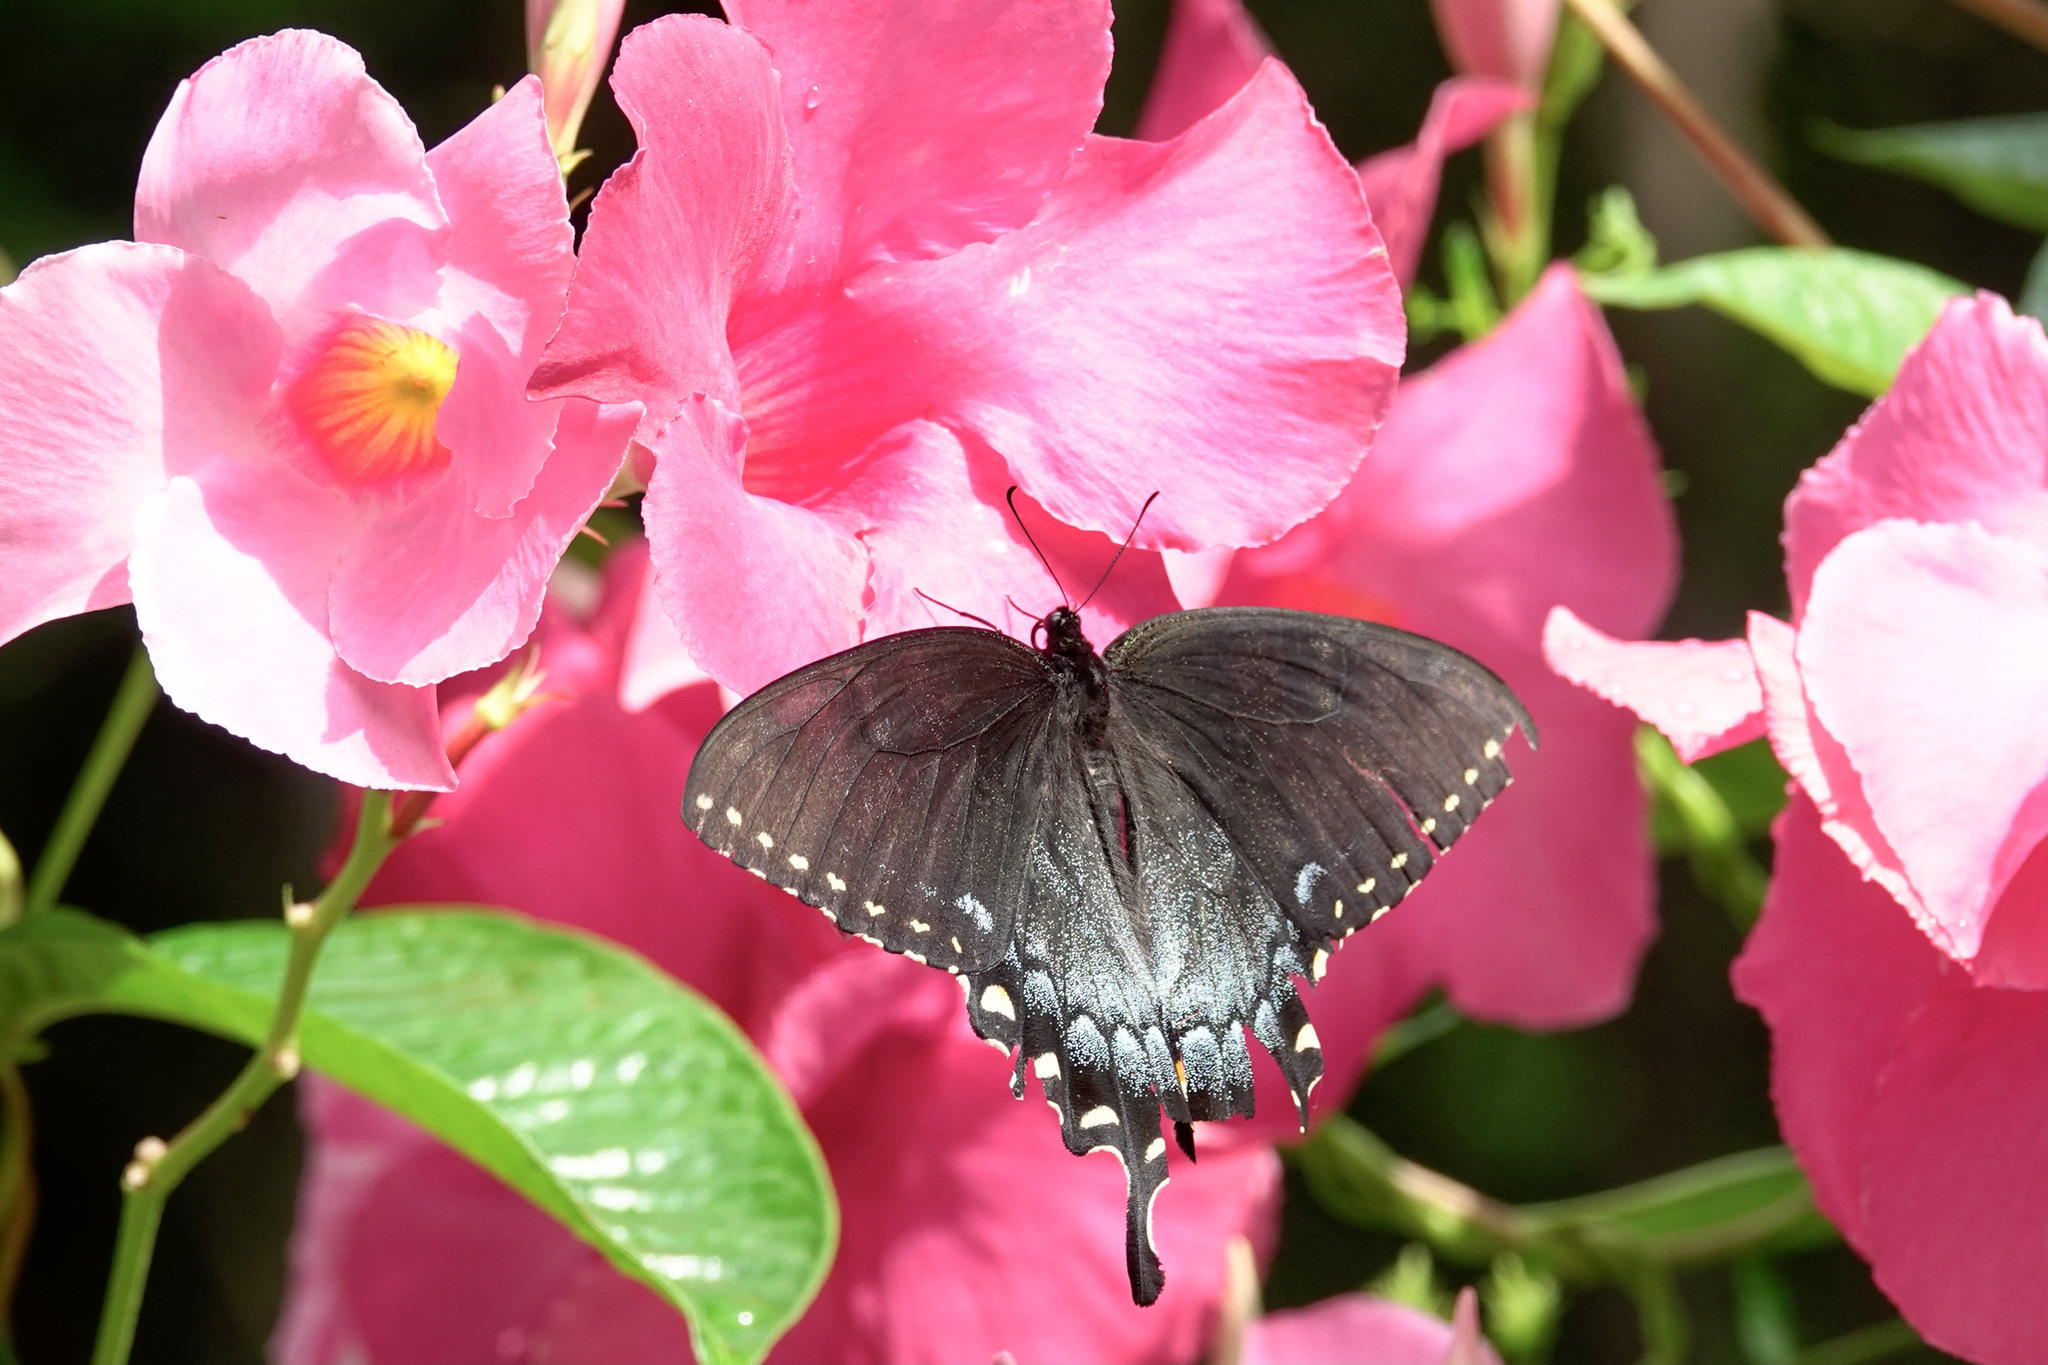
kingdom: Animalia
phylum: Arthropoda
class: Insecta
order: Lepidoptera
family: Papilionidae
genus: Papilio
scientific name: Papilio glaucus
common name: Tiger swallowtail
